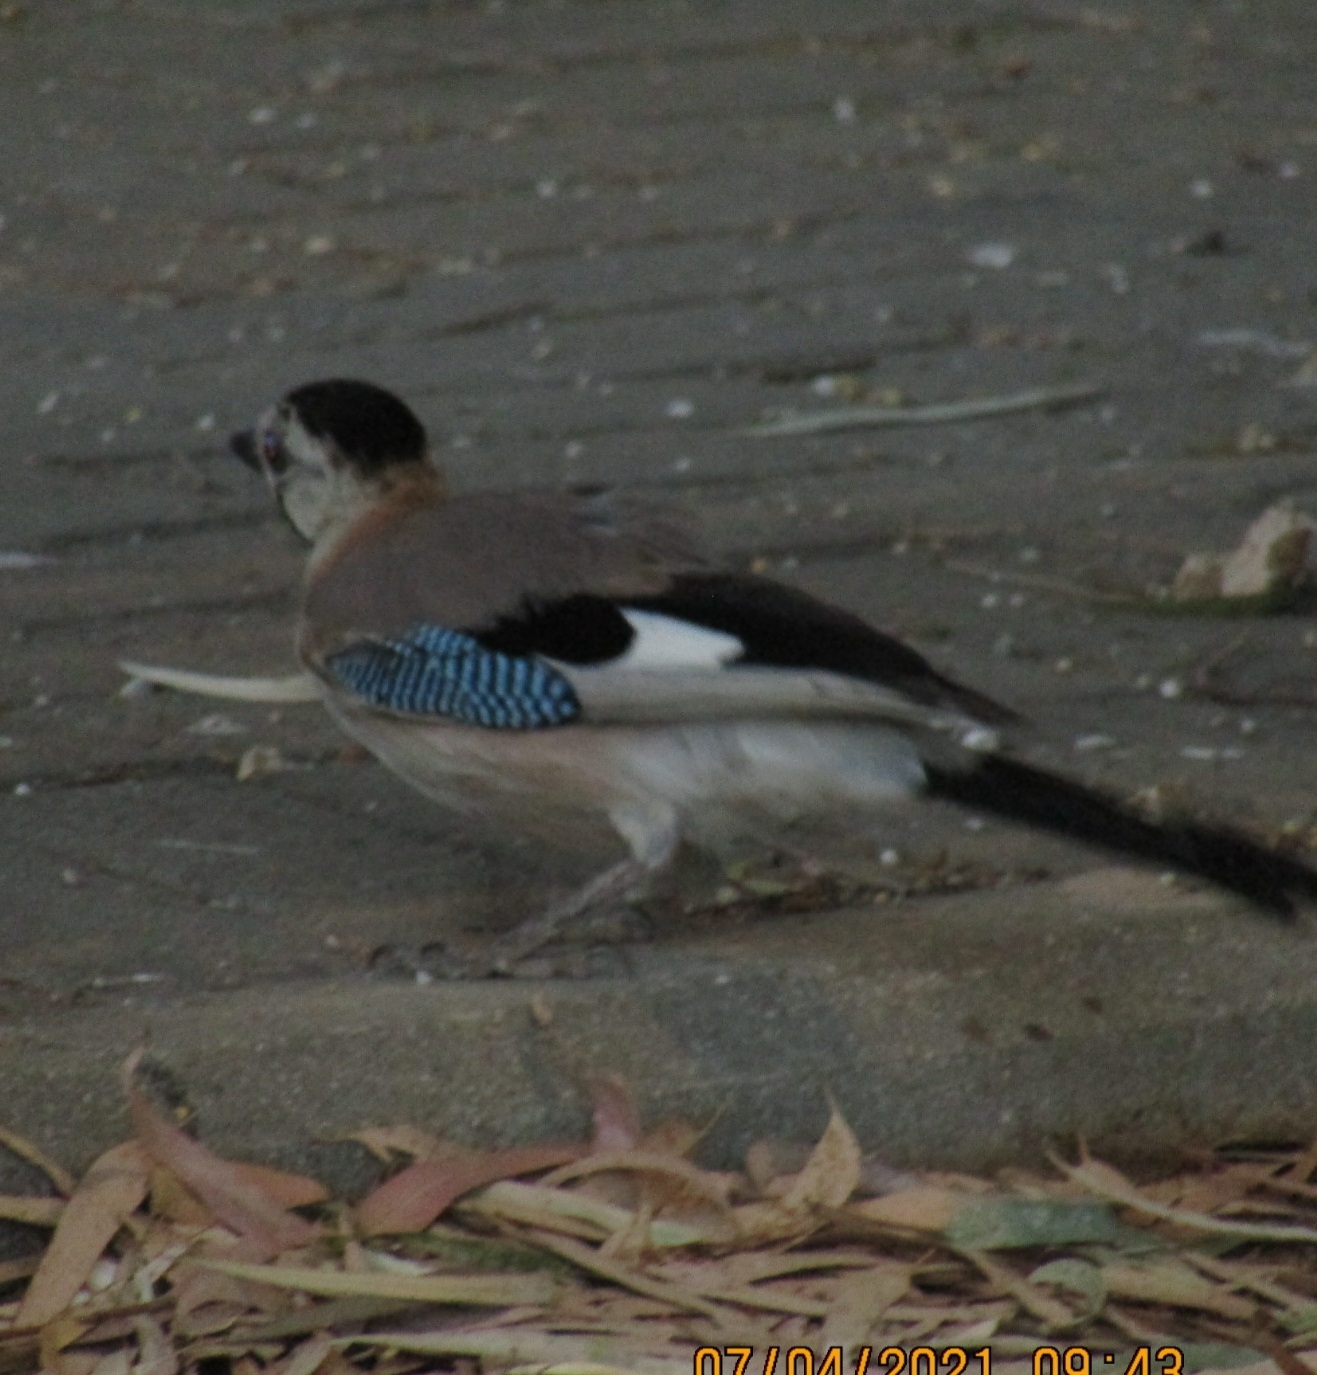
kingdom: Animalia
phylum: Chordata
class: Aves
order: Passeriformes
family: Corvidae
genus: Garrulus
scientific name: Garrulus glandarius
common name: Eurasian jay
